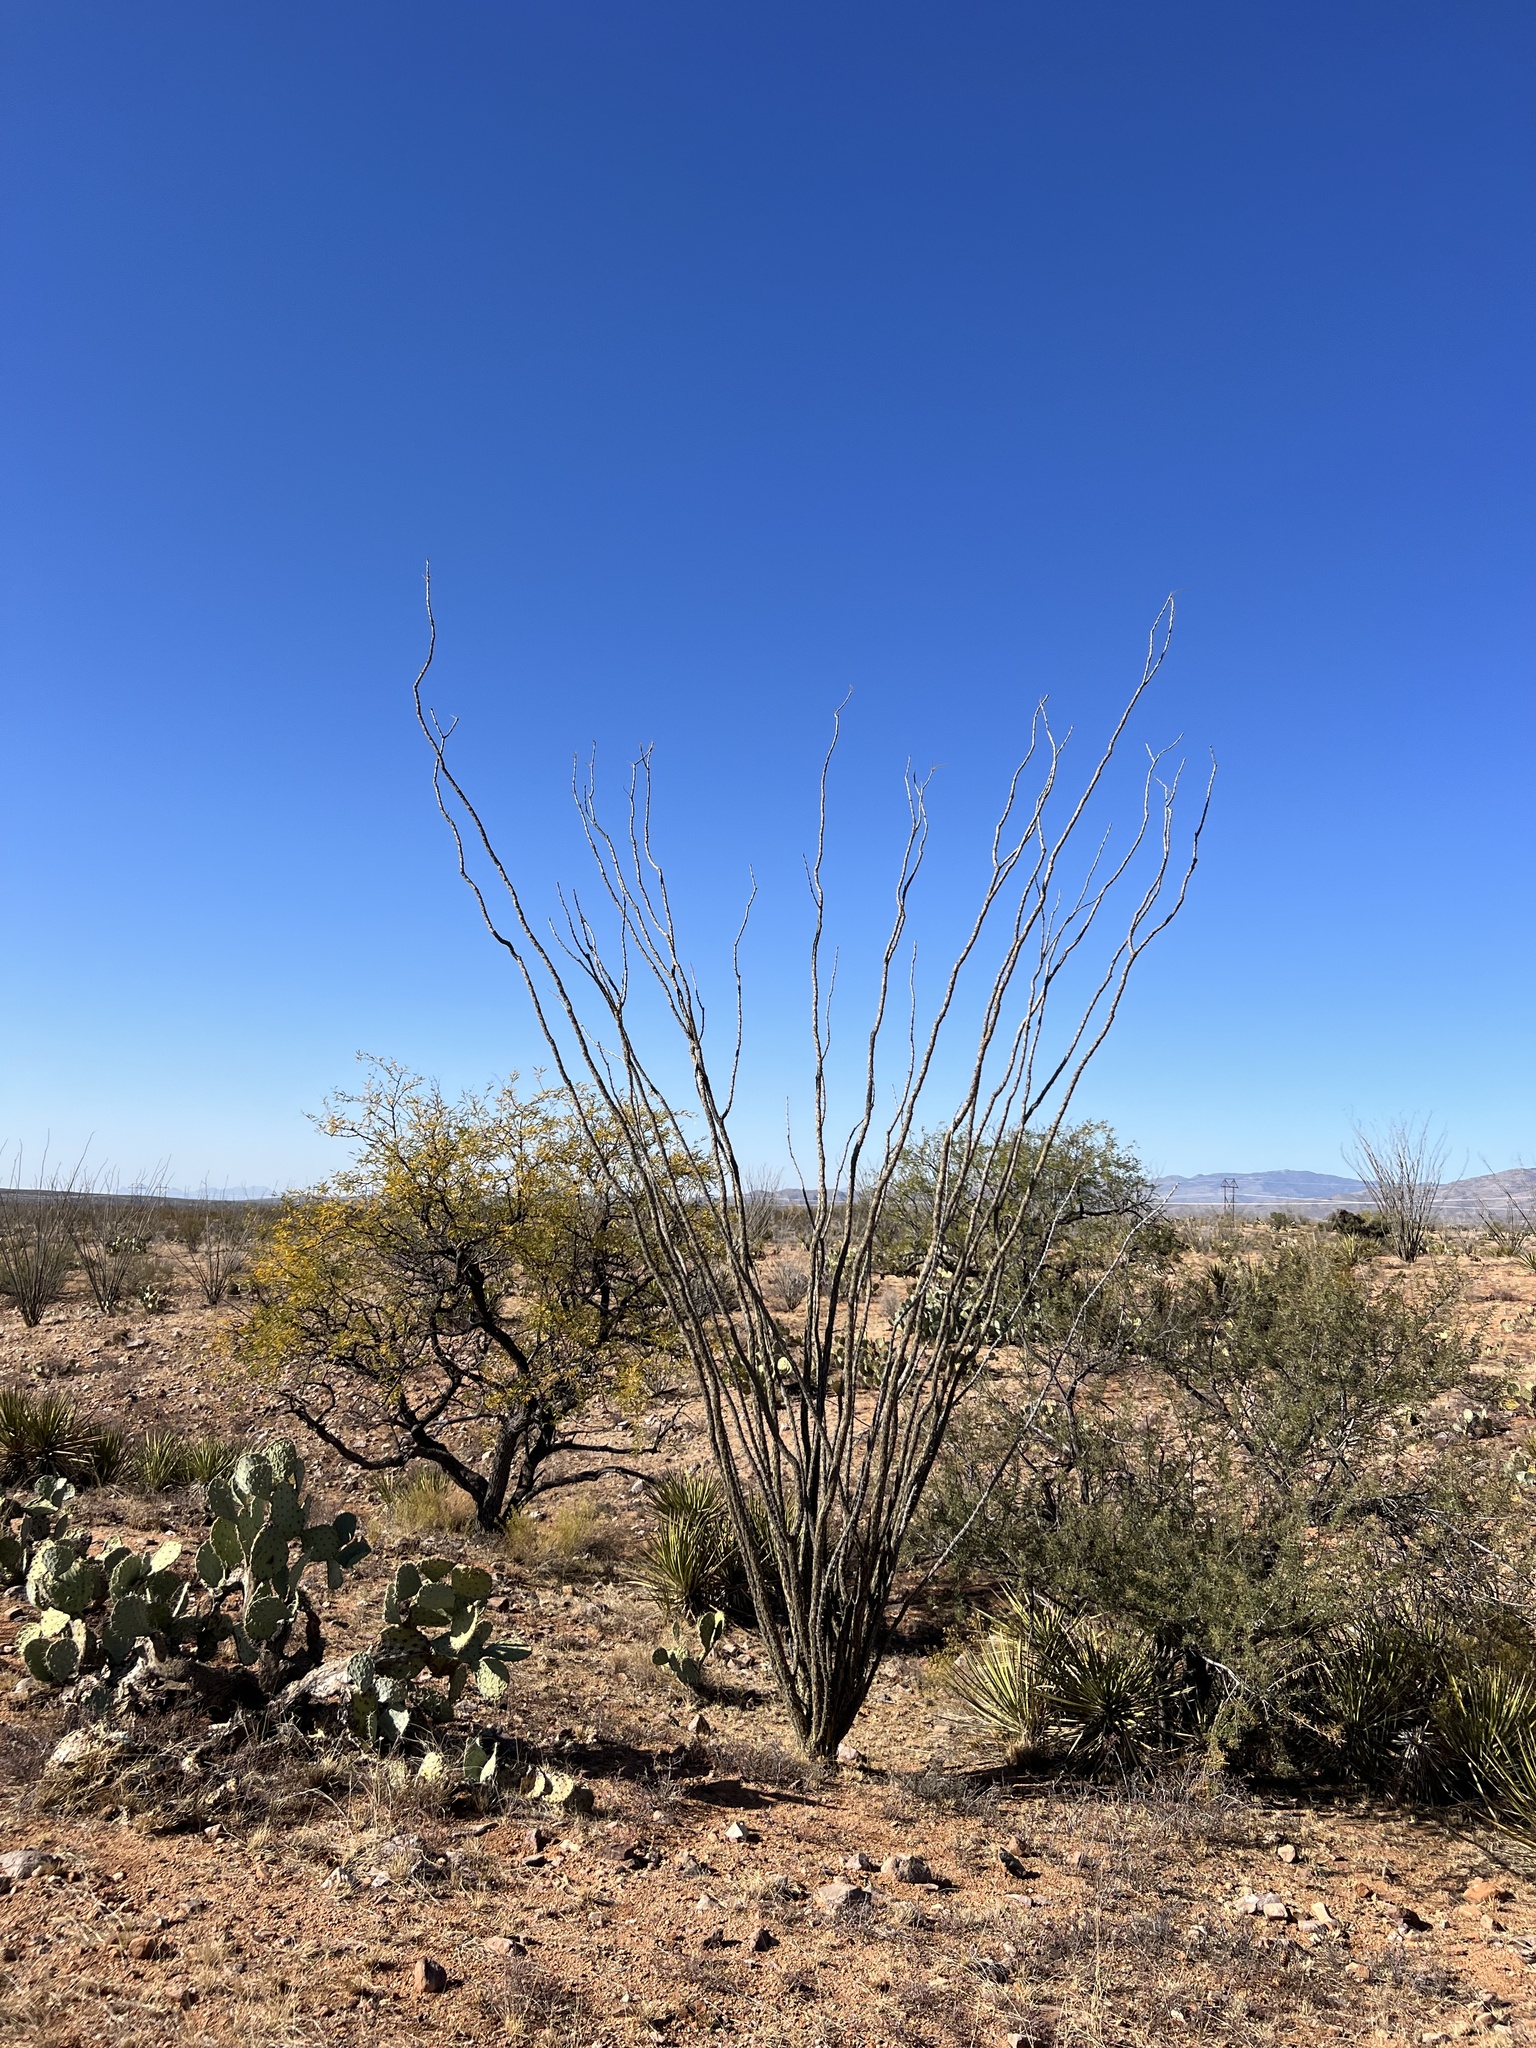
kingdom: Plantae
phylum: Tracheophyta
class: Magnoliopsida
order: Ericales
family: Fouquieriaceae
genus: Fouquieria
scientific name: Fouquieria splendens
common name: Vine-cactus
